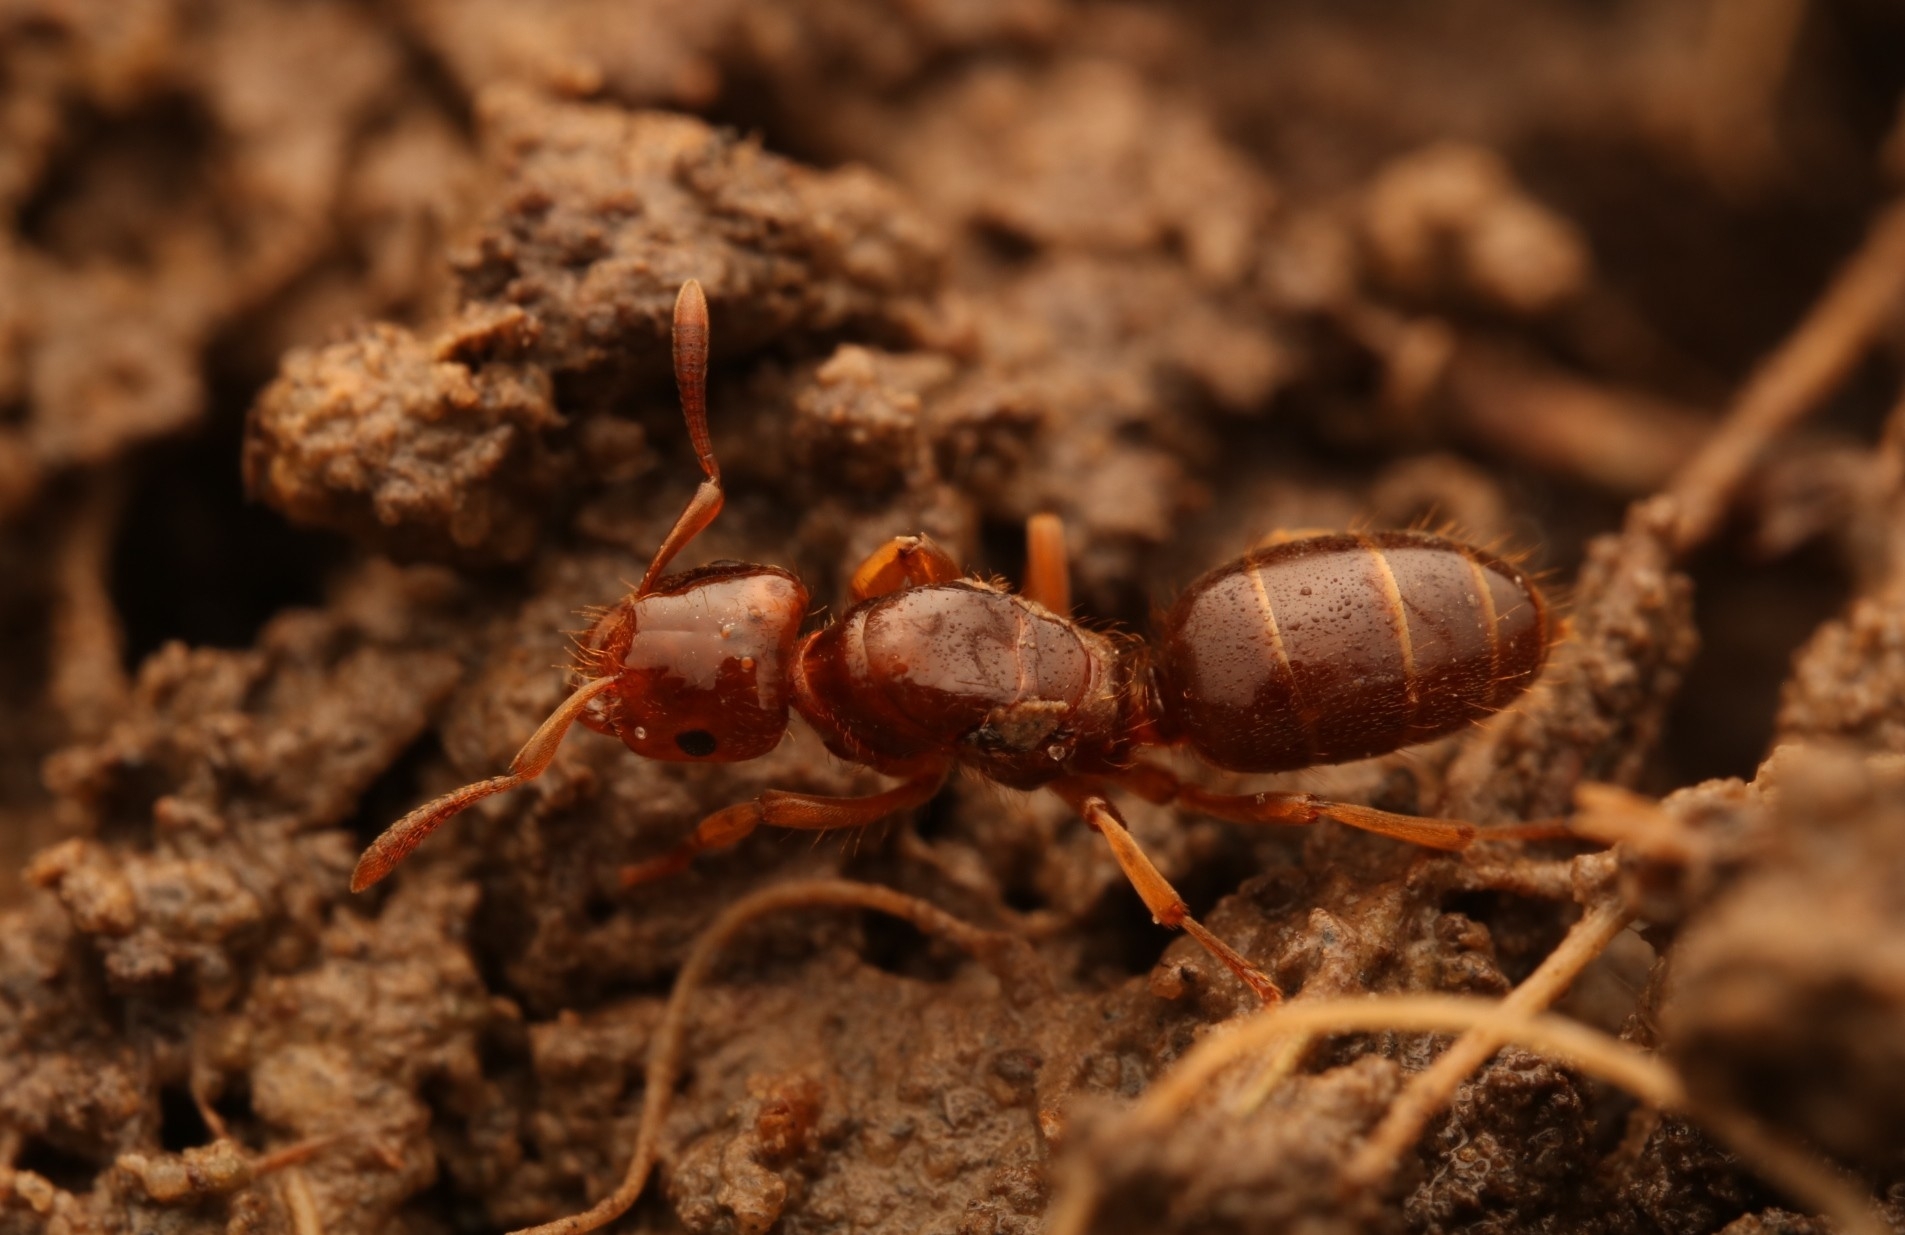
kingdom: Animalia
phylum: Arthropoda
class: Insecta
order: Hymenoptera
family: Formicidae
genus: Lasius
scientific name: Lasius claviger
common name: Common citronella ant
